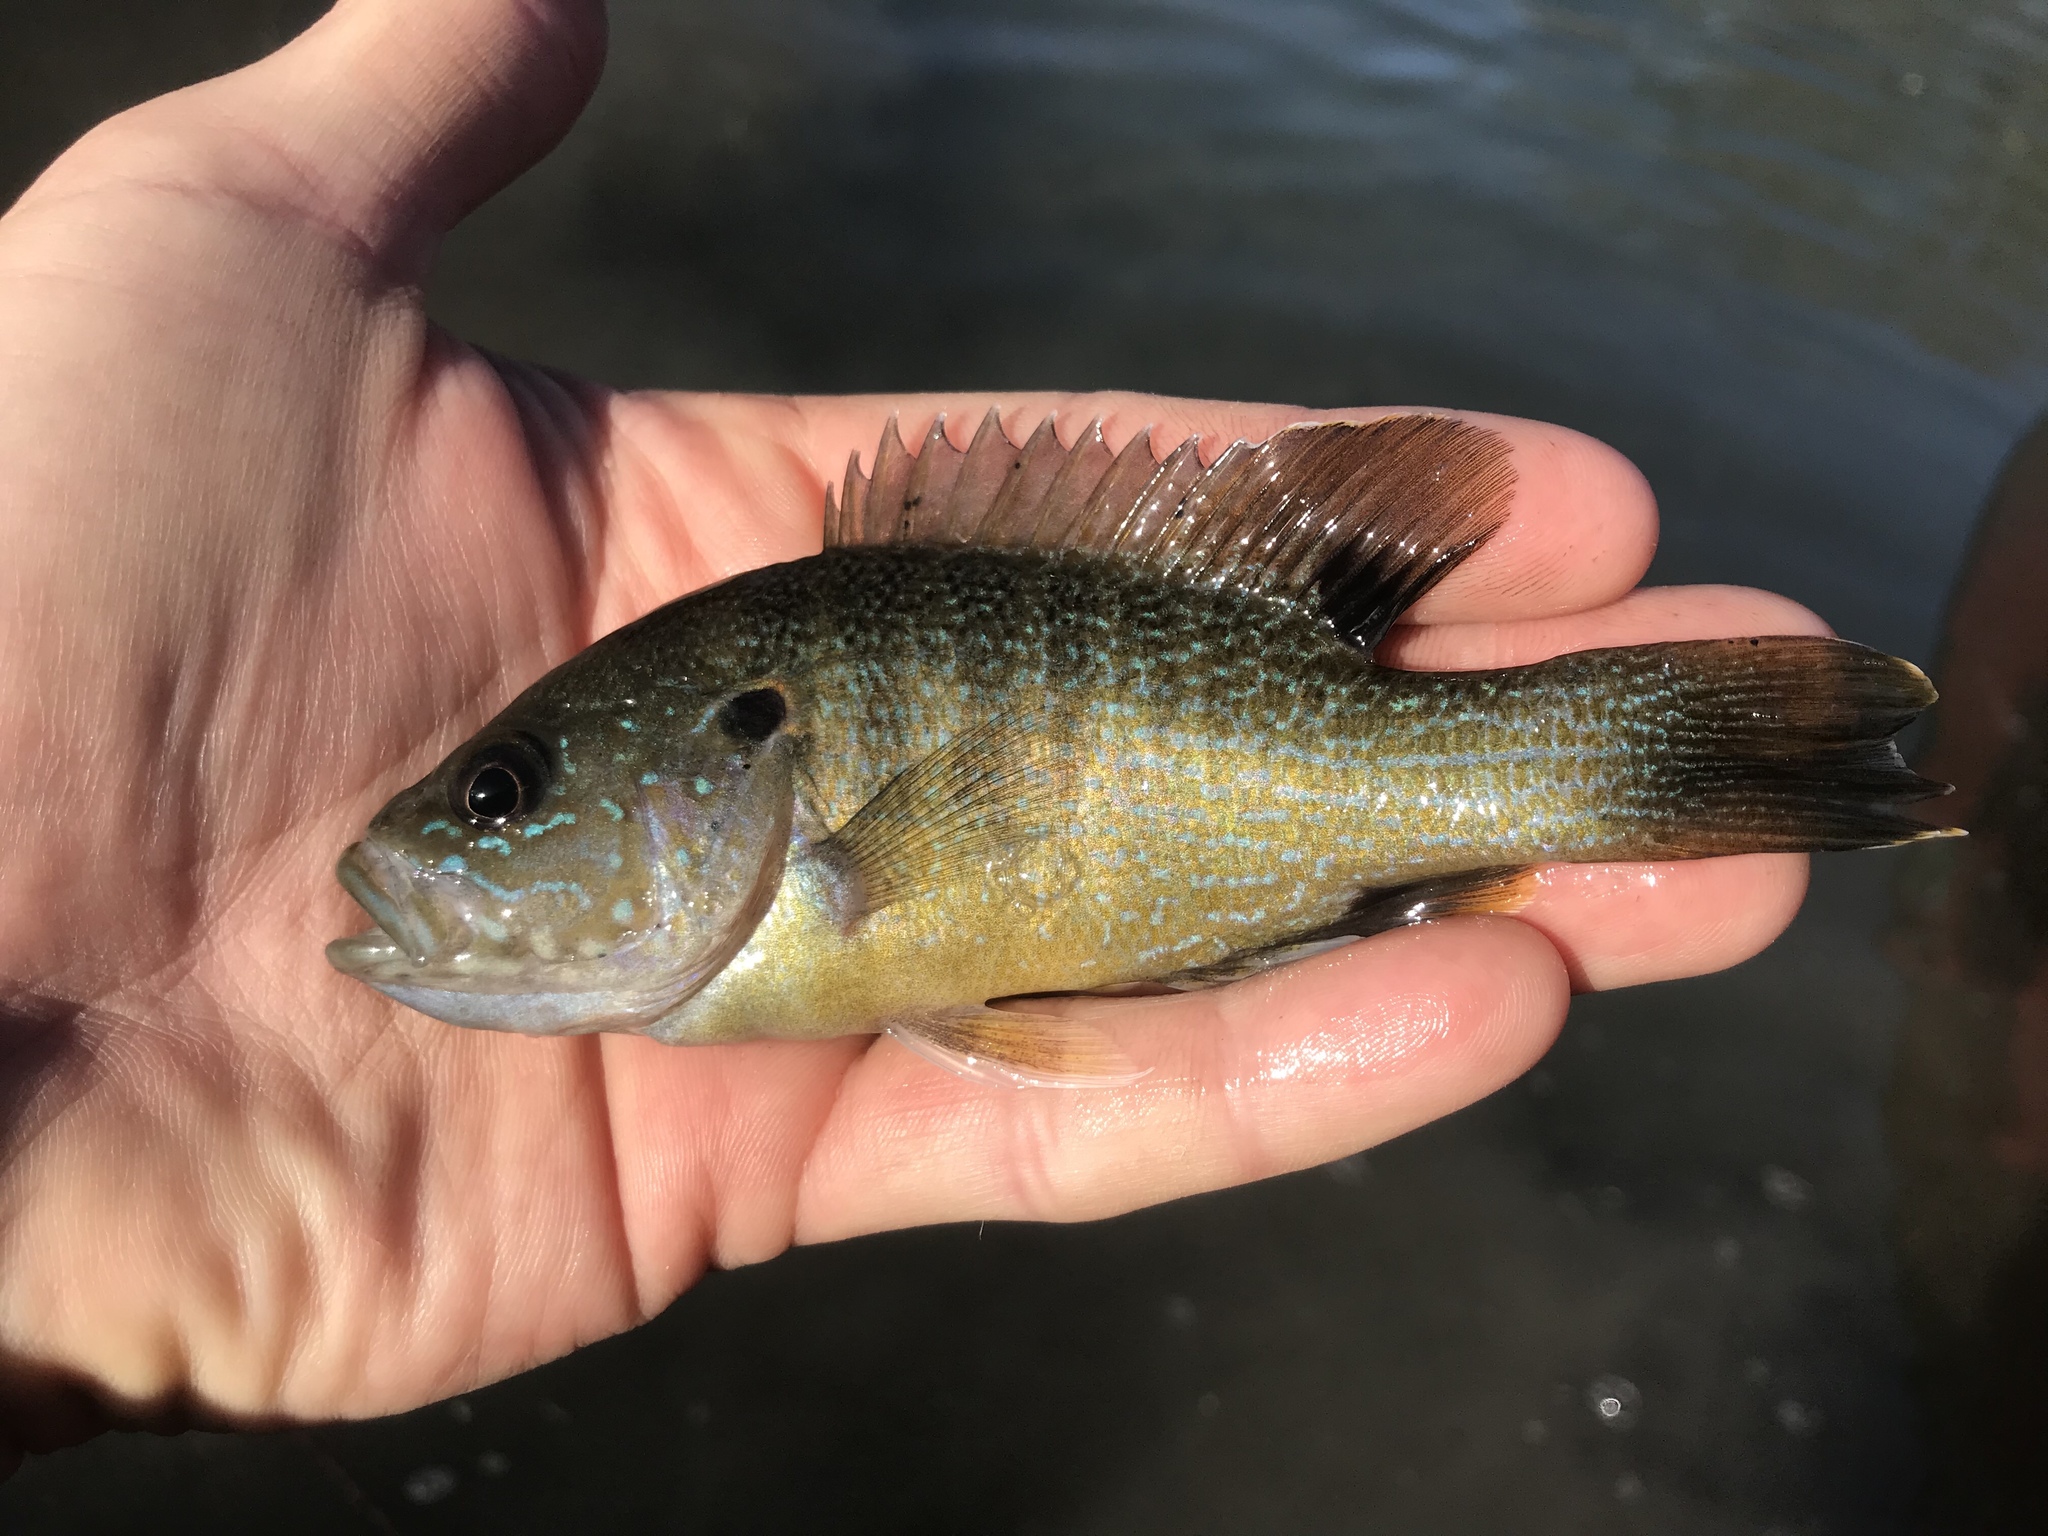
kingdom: Animalia
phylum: Chordata
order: Perciformes
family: Centrarchidae
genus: Lepomis
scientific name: Lepomis cyanellus
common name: Green sunfish
